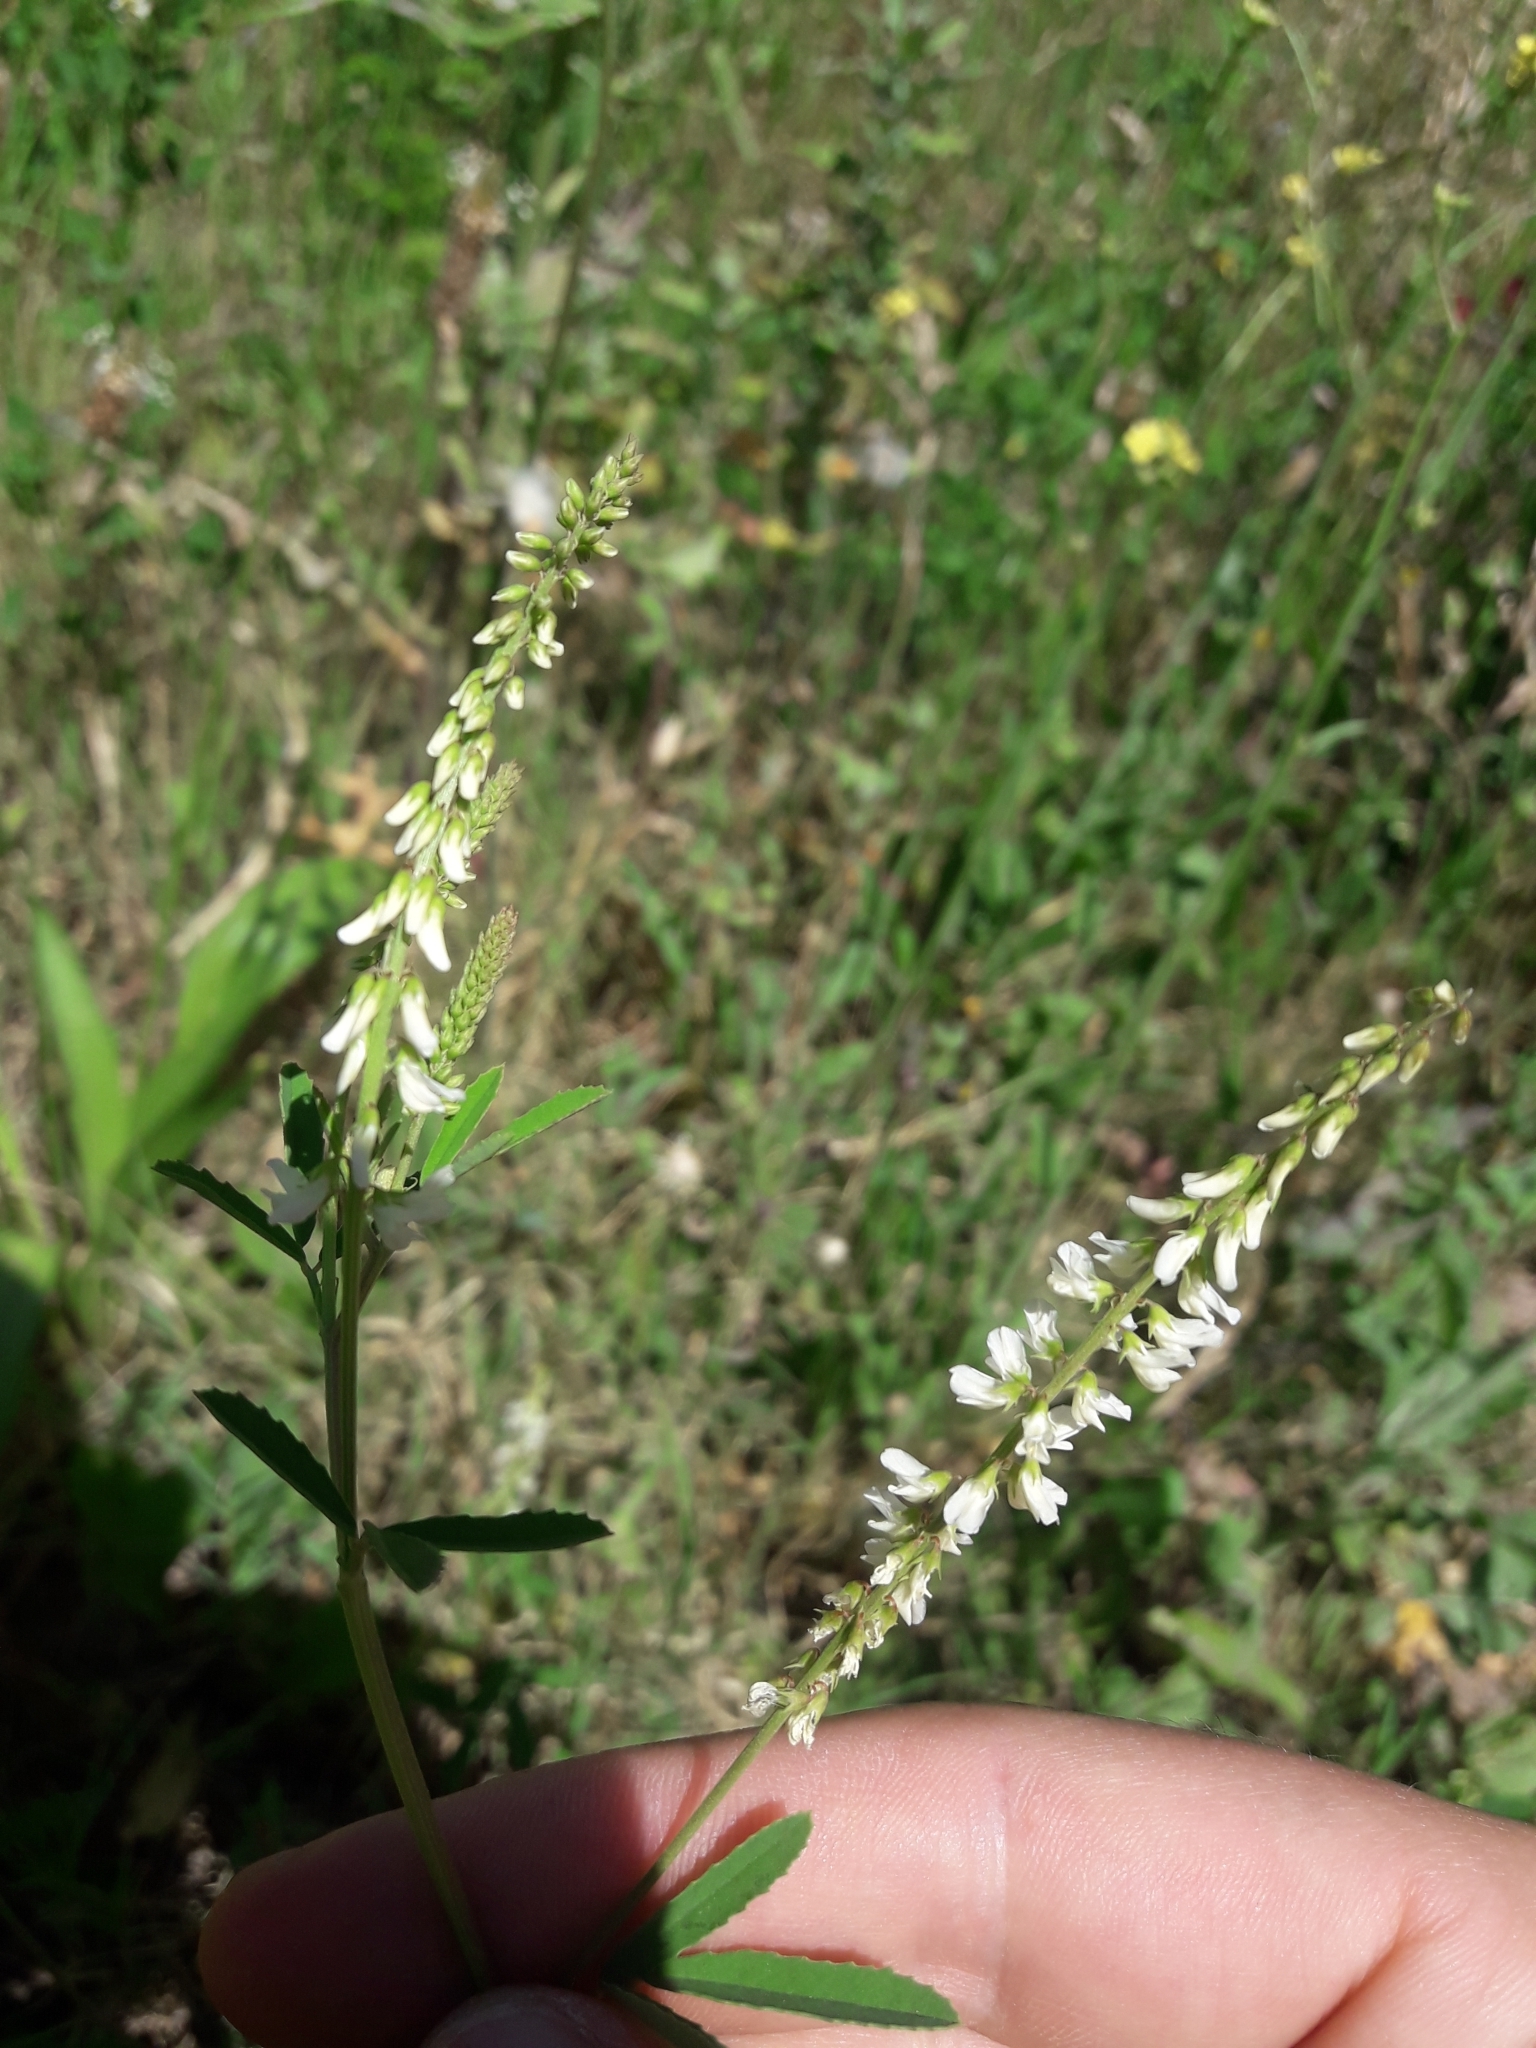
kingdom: Plantae
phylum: Tracheophyta
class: Magnoliopsida
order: Fabales
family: Fabaceae
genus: Melilotus
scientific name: Melilotus albus
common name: White melilot
